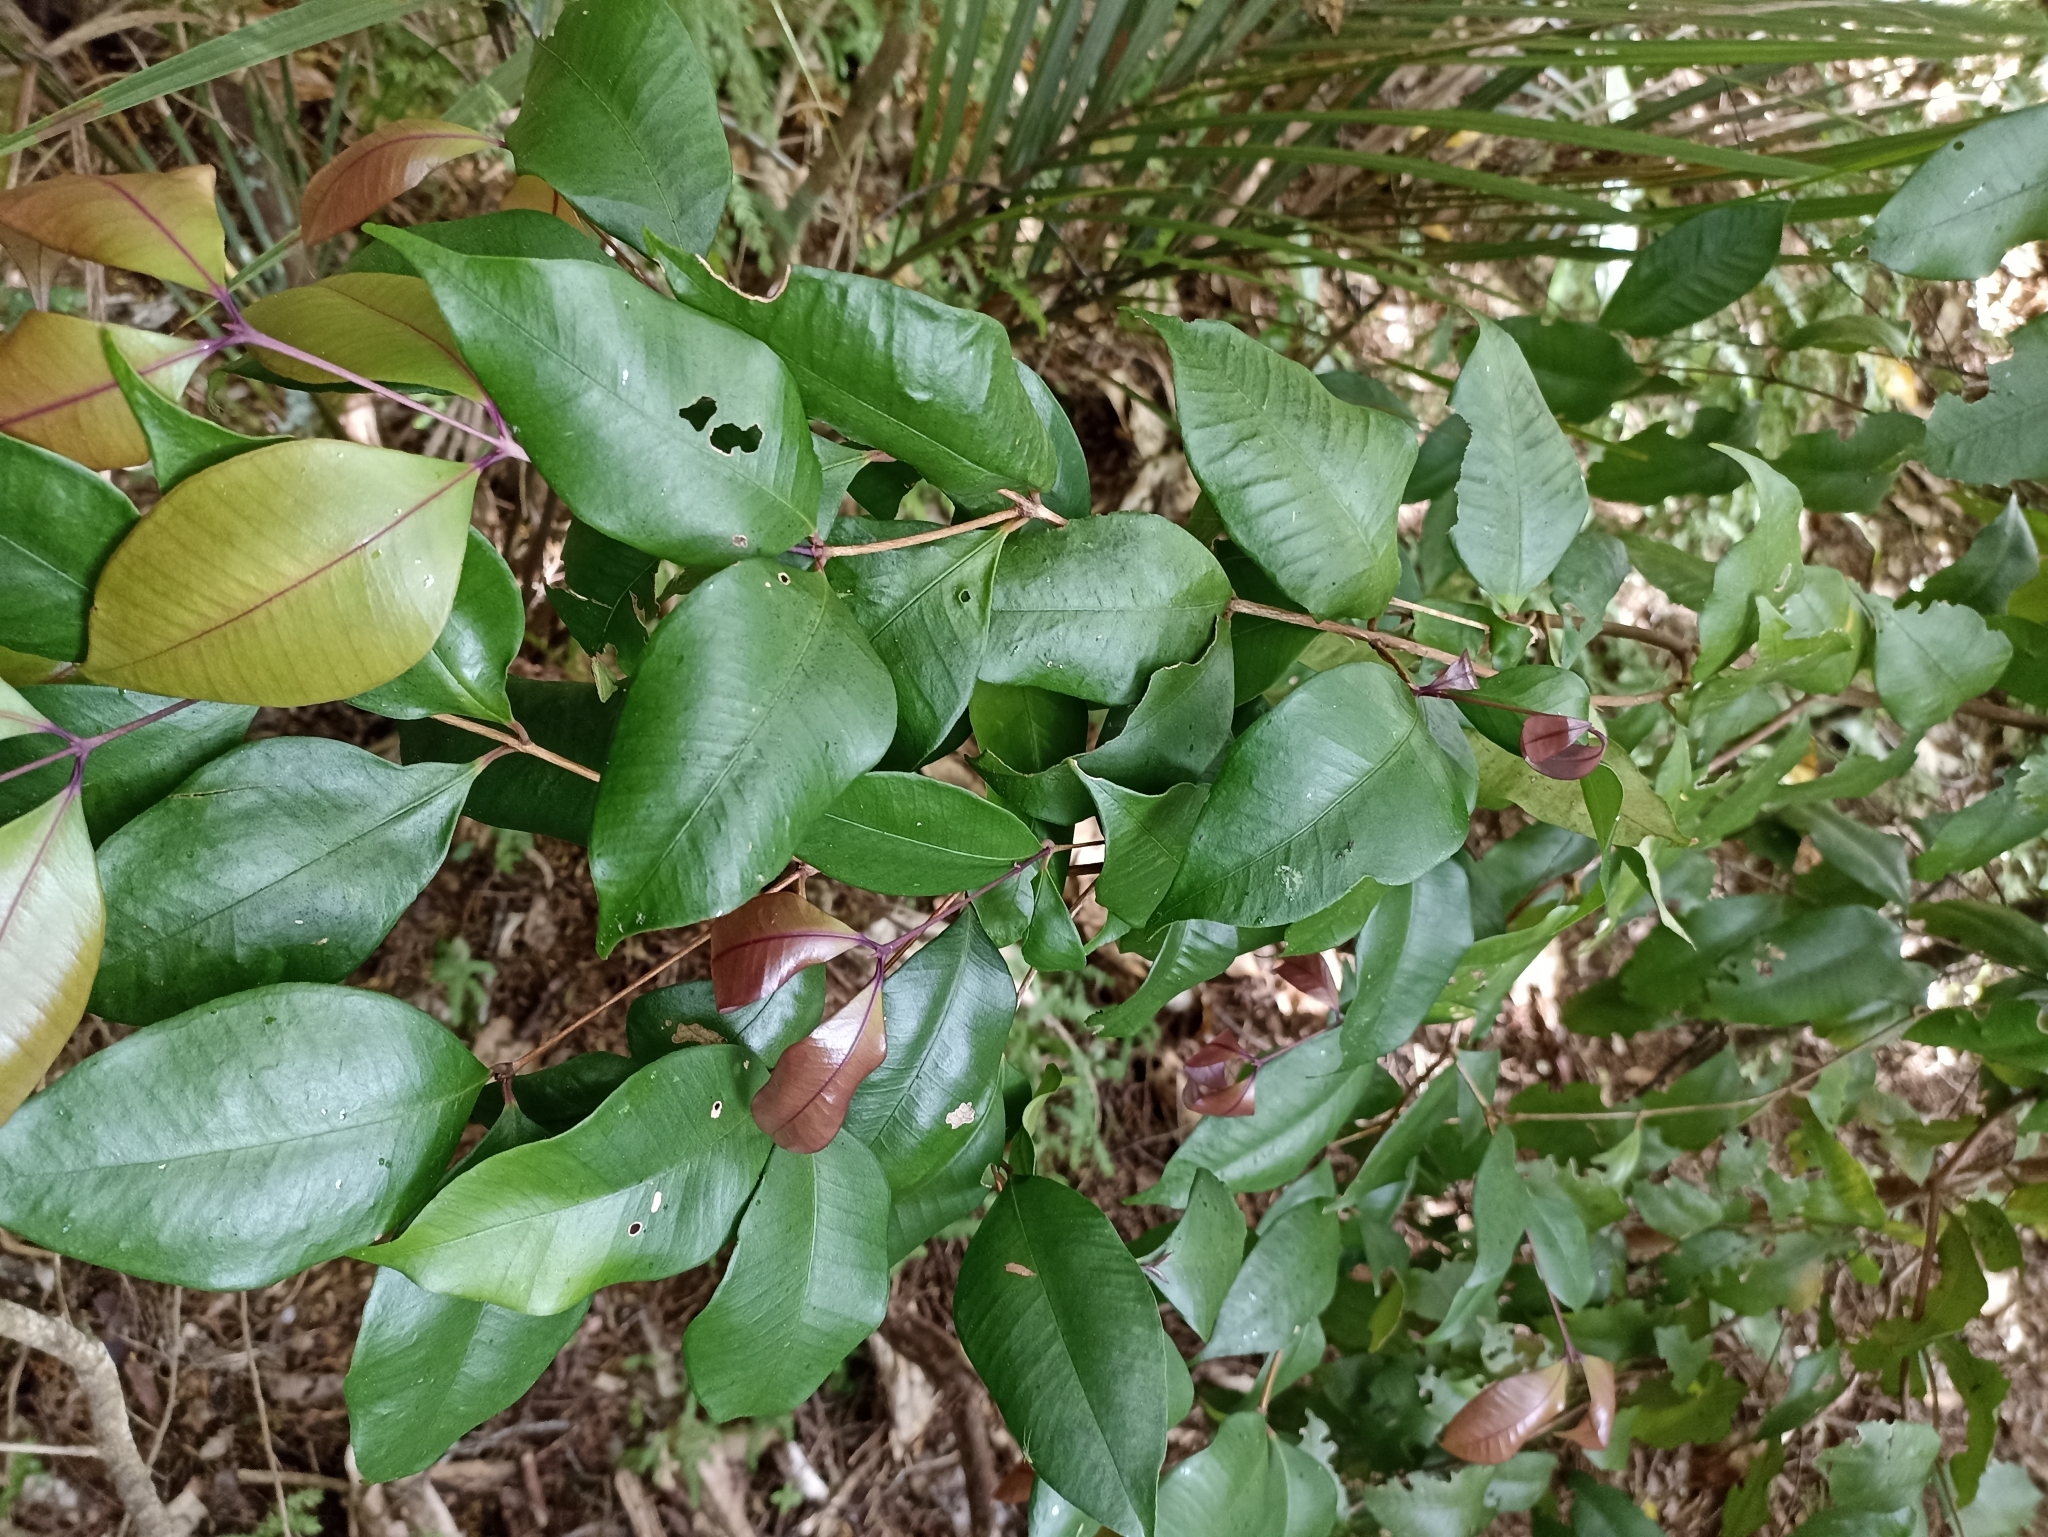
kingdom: Plantae
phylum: Tracheophyta
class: Magnoliopsida
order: Myrtales
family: Myrtaceae
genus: Syzygium
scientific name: Syzygium smithii
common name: Lilly-pilly
